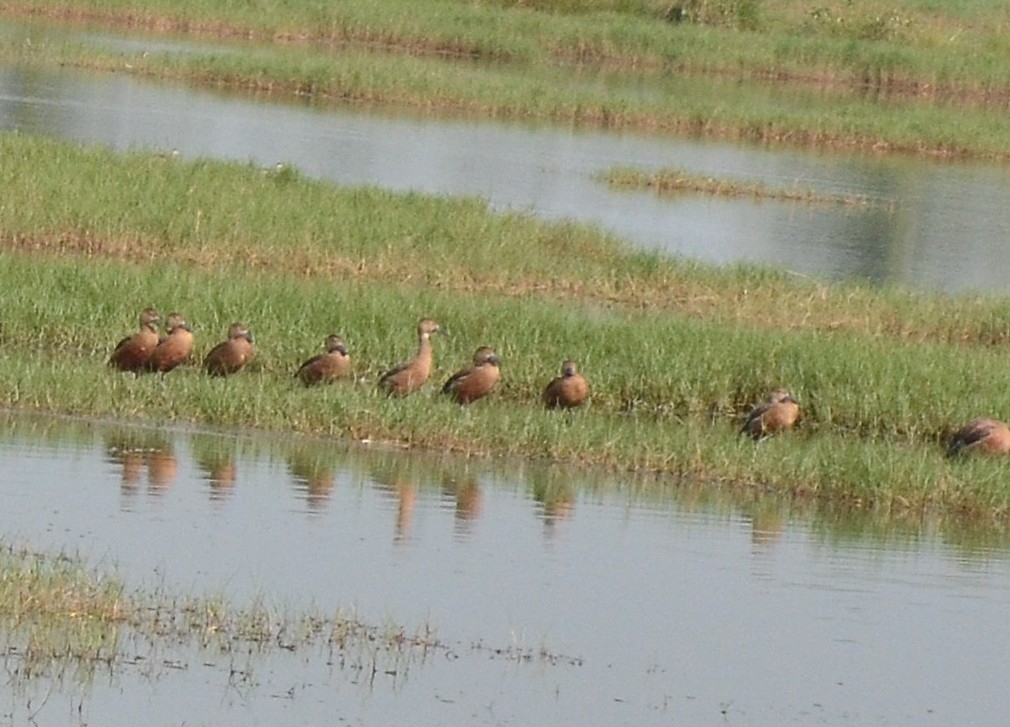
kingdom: Animalia
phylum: Chordata
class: Aves
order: Anseriformes
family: Anatidae
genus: Dendrocygna
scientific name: Dendrocygna javanica
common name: Lesser whistling-duck
